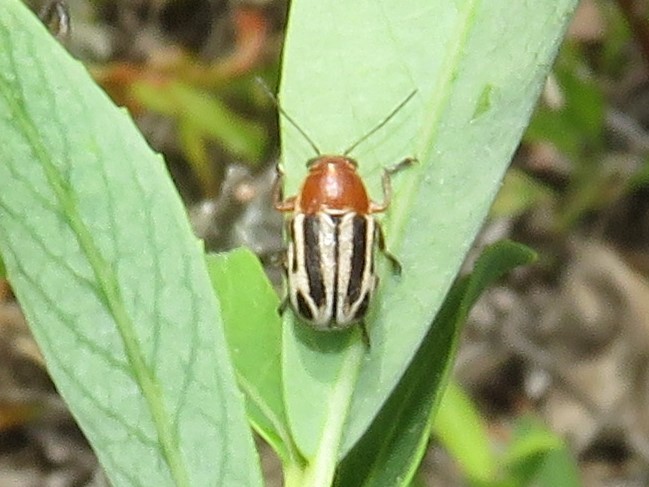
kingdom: Animalia
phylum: Arthropoda
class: Insecta
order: Coleoptera
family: Chrysomelidae
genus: Pachybrachis
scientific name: Pachybrachis bivittatus
